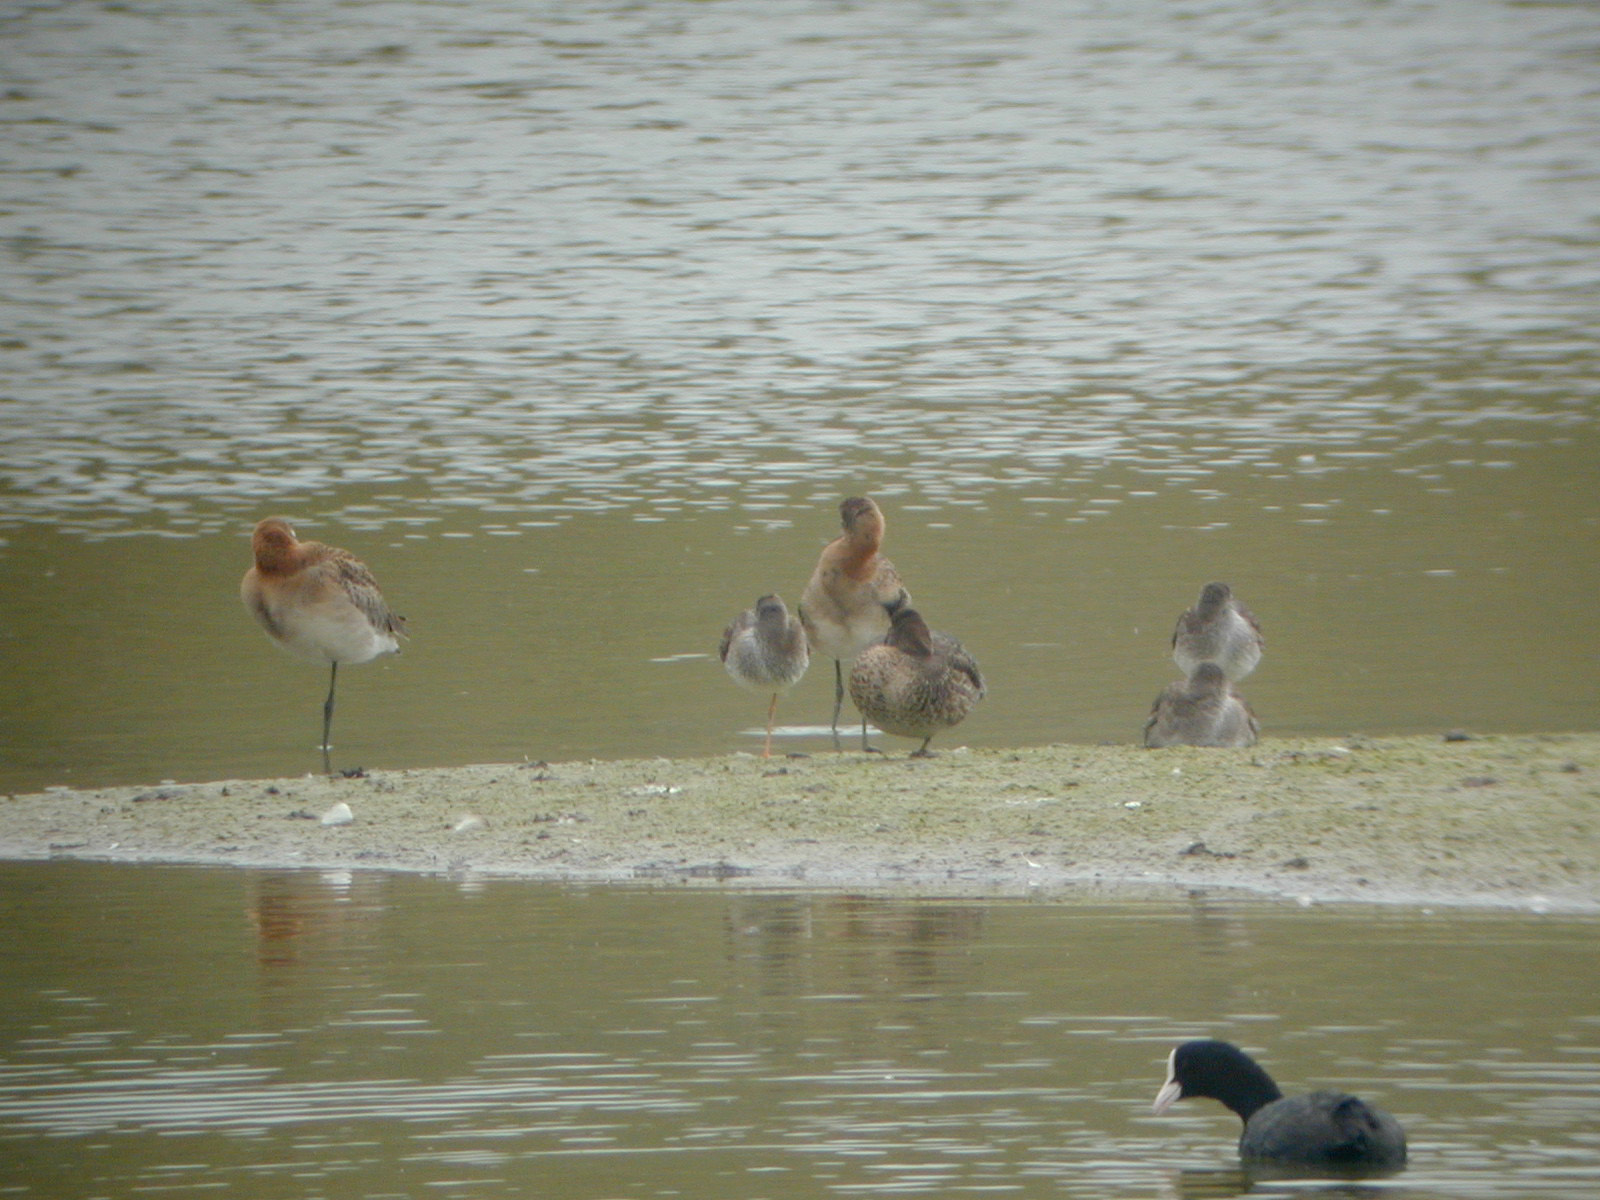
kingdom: Animalia
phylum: Chordata
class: Aves
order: Charadriiformes
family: Scolopacidae
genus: Limosa
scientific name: Limosa limosa
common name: Black-tailed godwit
